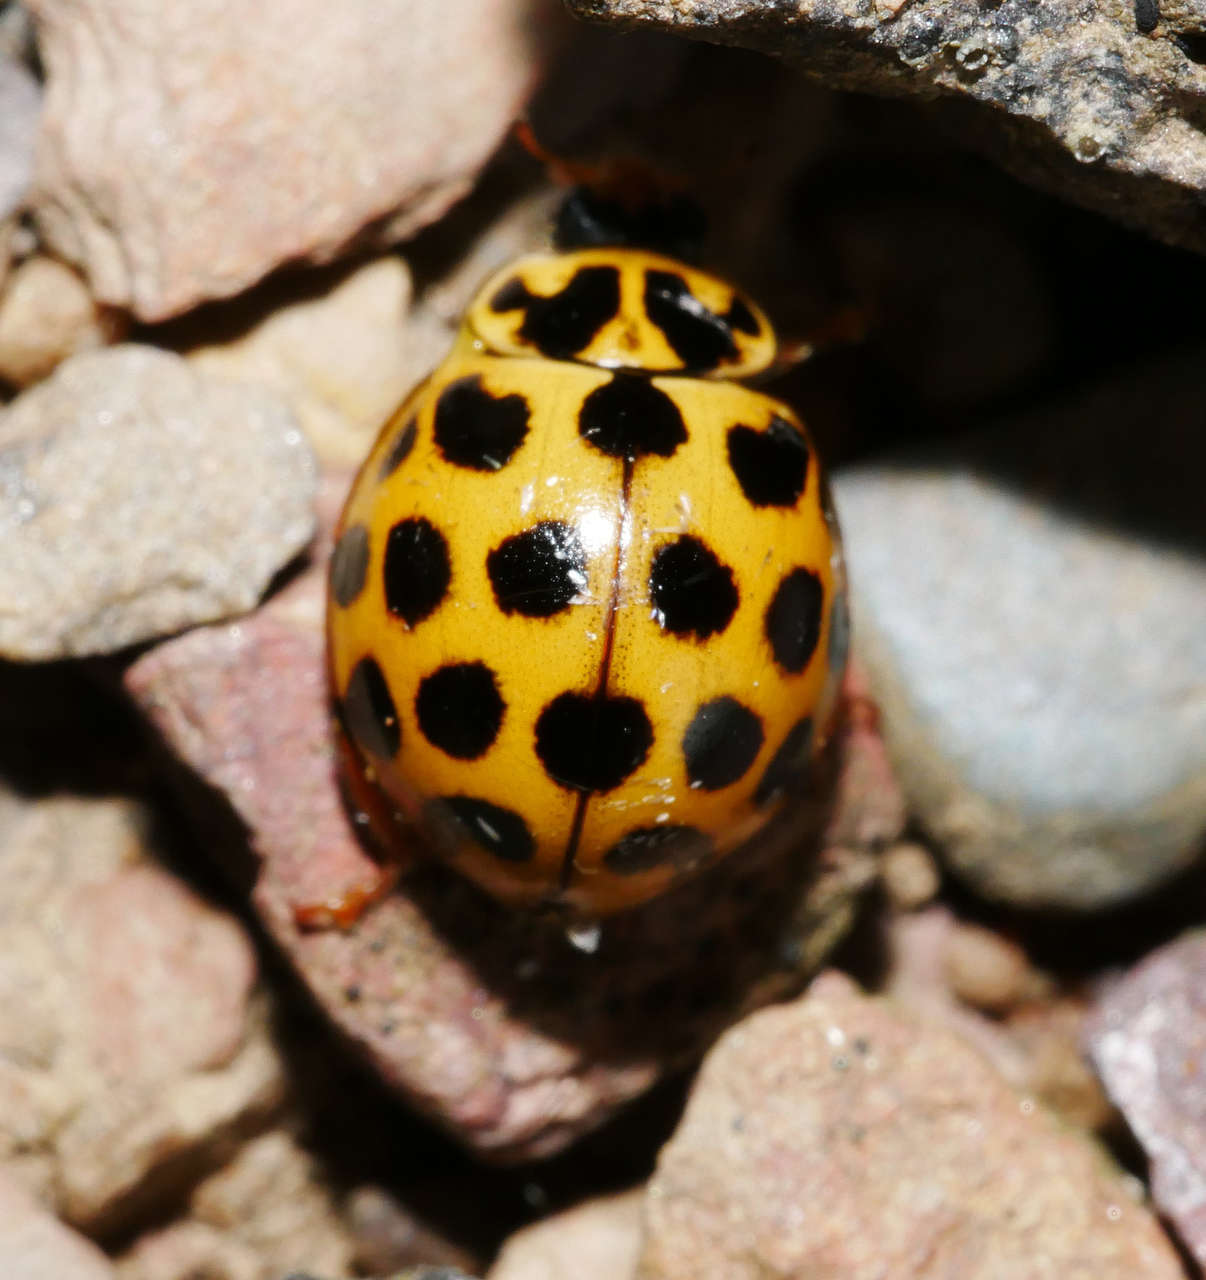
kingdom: Animalia
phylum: Arthropoda
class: Insecta
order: Coleoptera
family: Coccinellidae
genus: Harmonia
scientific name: Harmonia conformis
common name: Common spotted ladybird beetle
